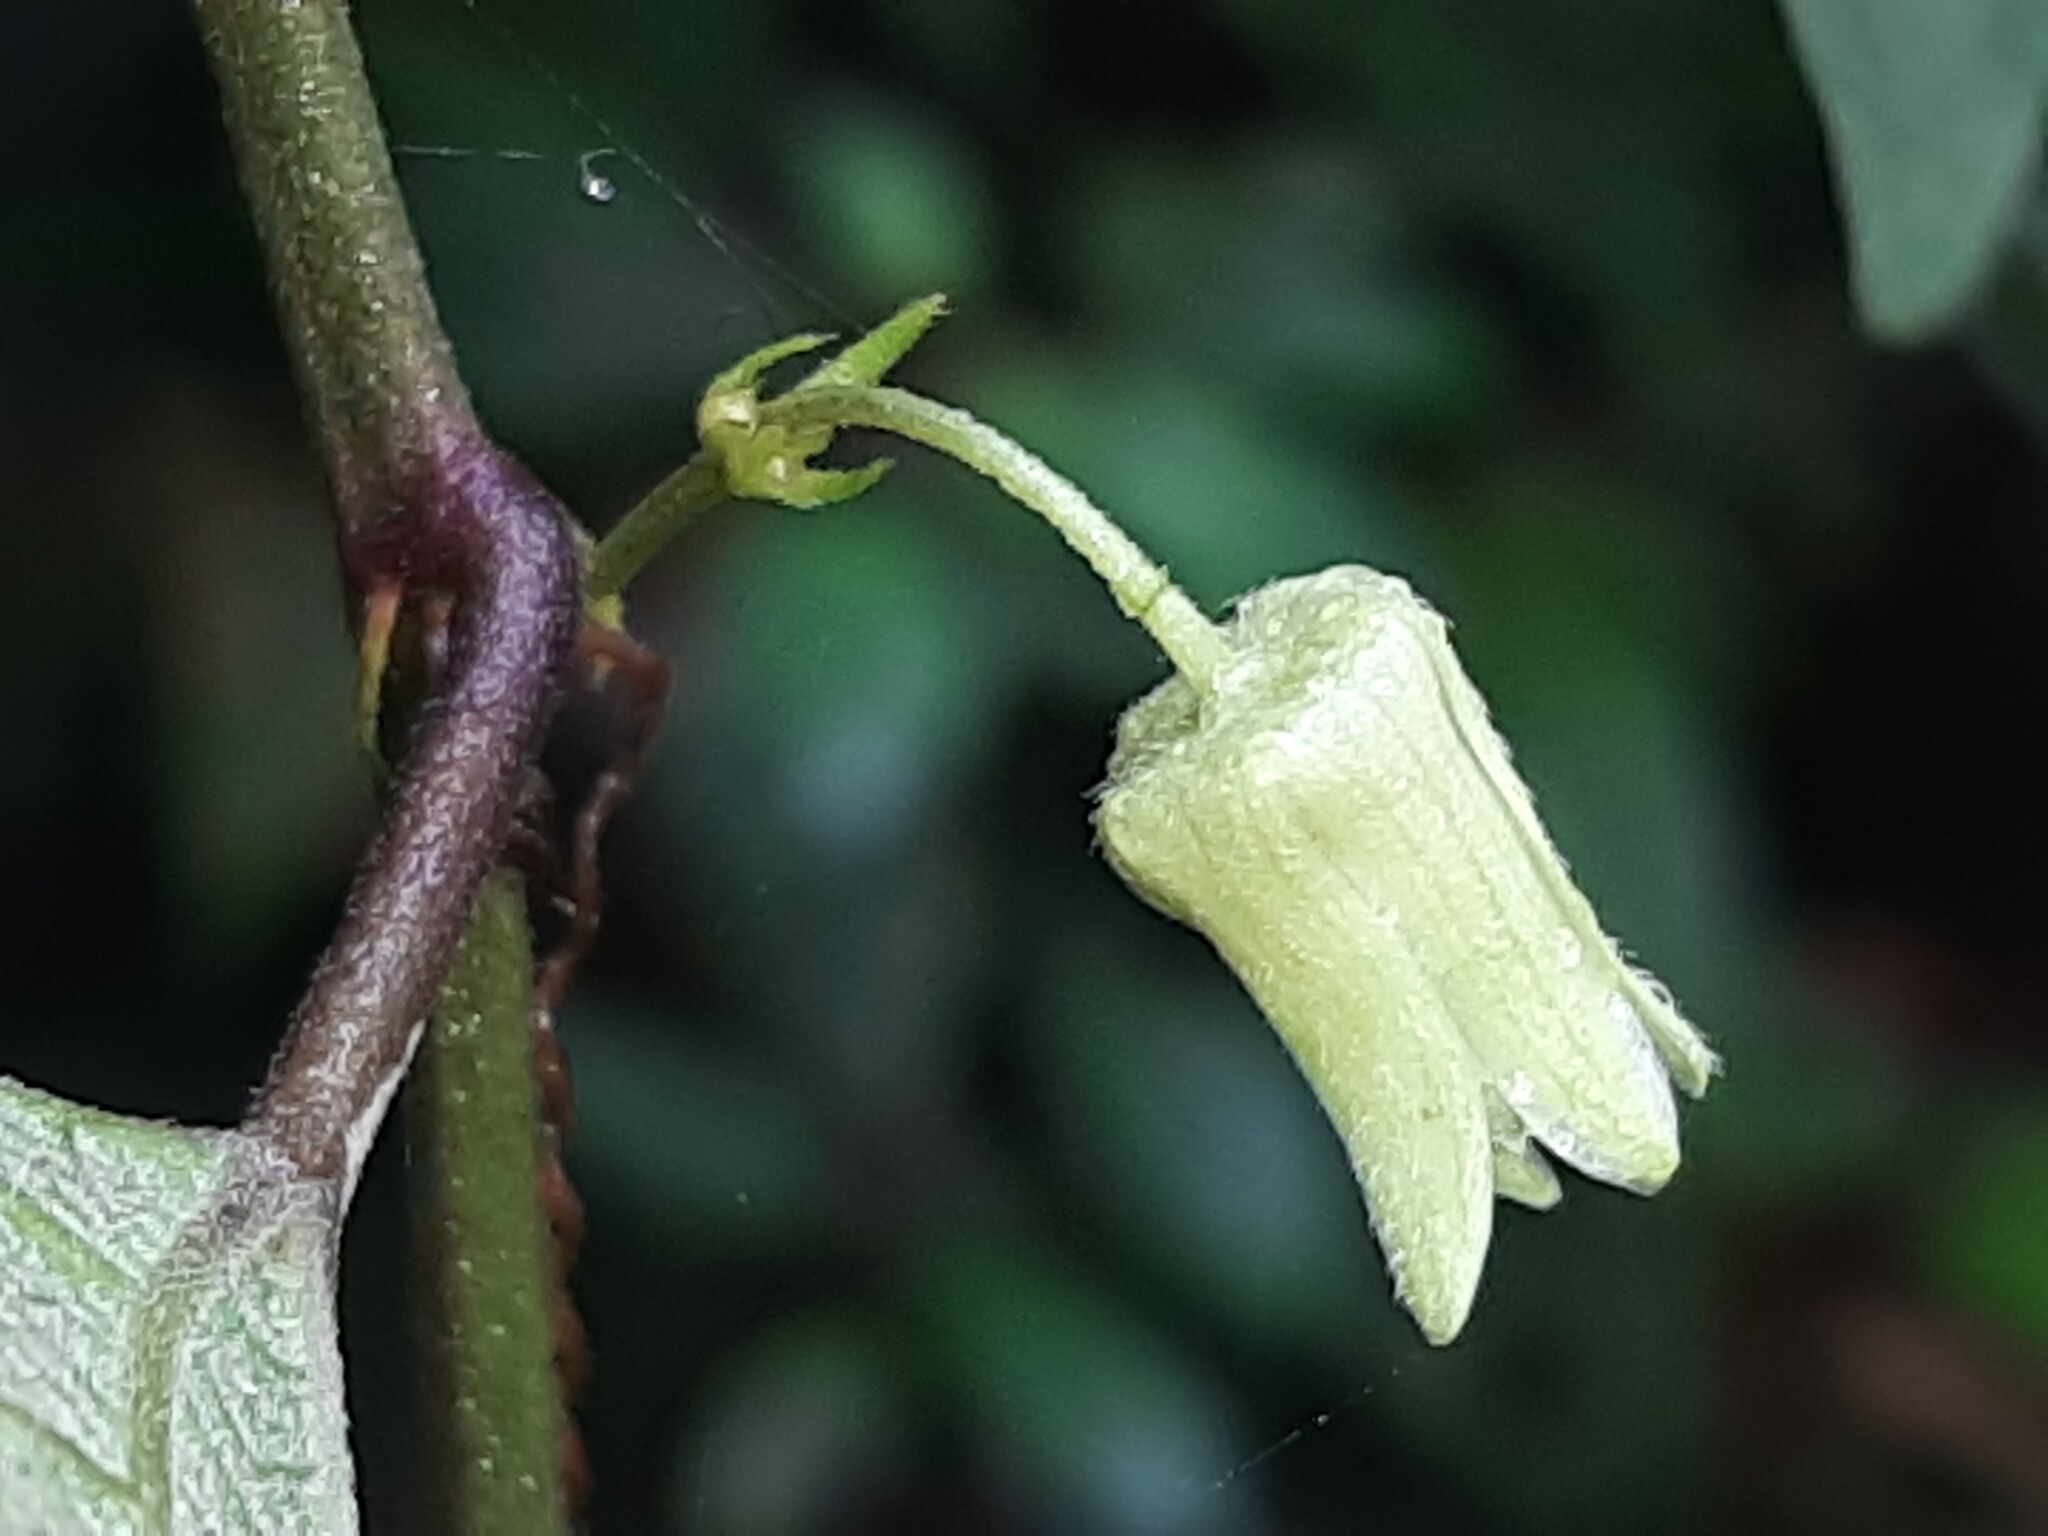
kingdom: Plantae
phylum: Tracheophyta
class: Magnoliopsida
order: Malpighiales
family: Passifloraceae
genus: Passiflora
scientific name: Passiflora sexflora
